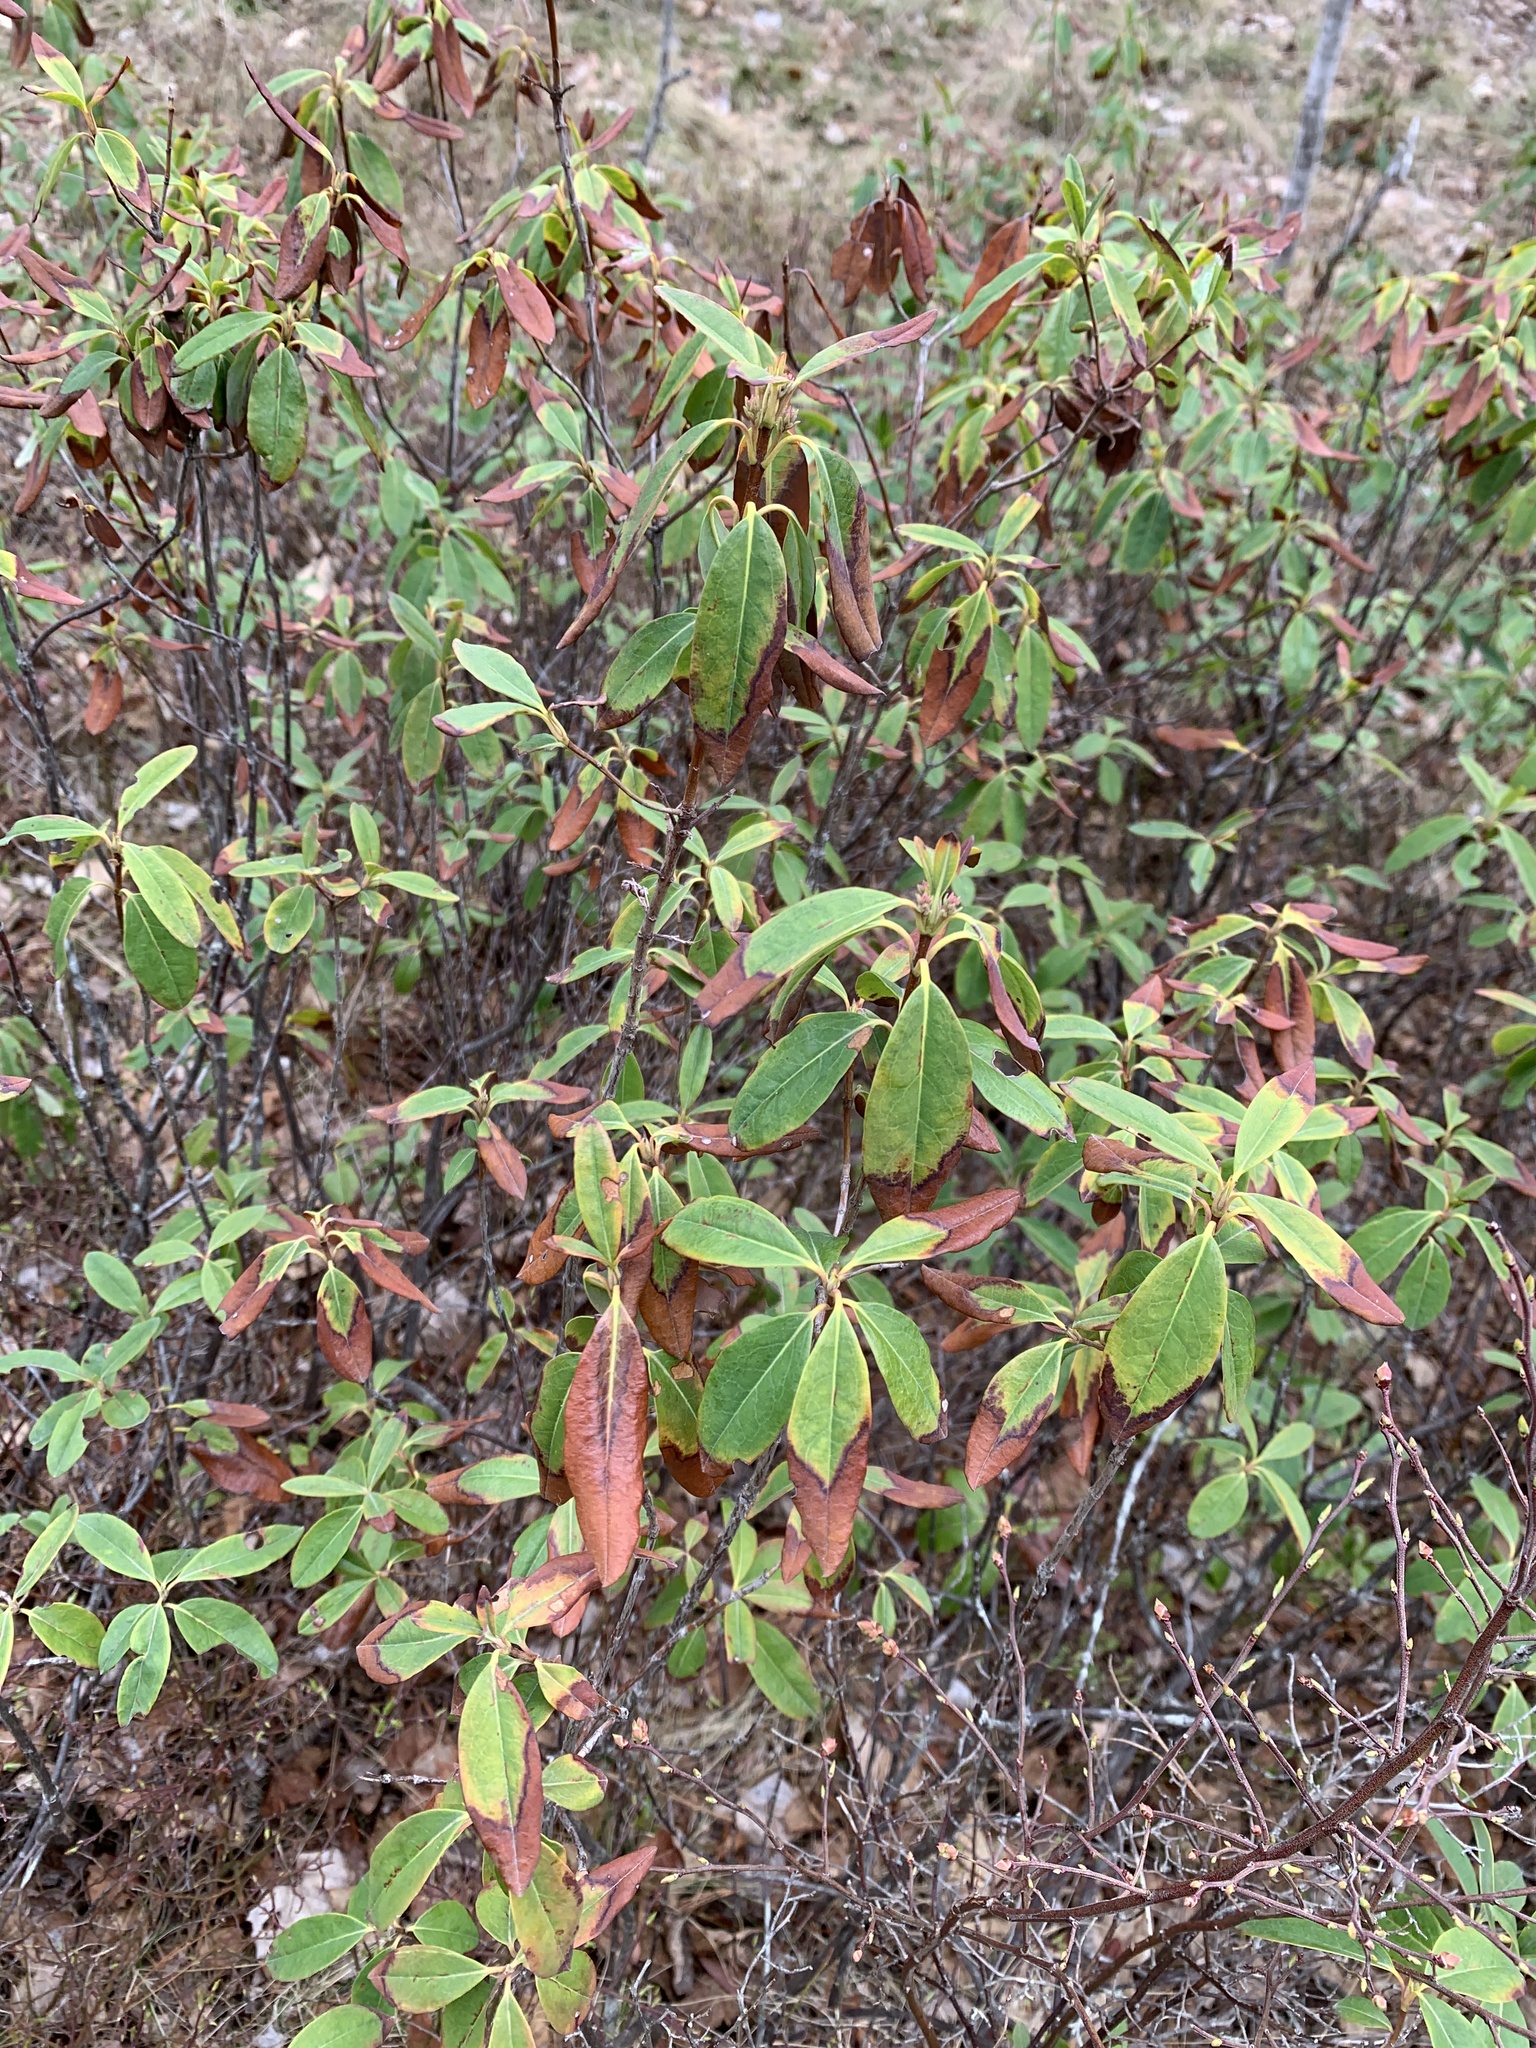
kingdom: Plantae
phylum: Tracheophyta
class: Magnoliopsida
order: Ericales
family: Ericaceae
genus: Kalmia
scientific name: Kalmia angustifolia
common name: Sheep-laurel
